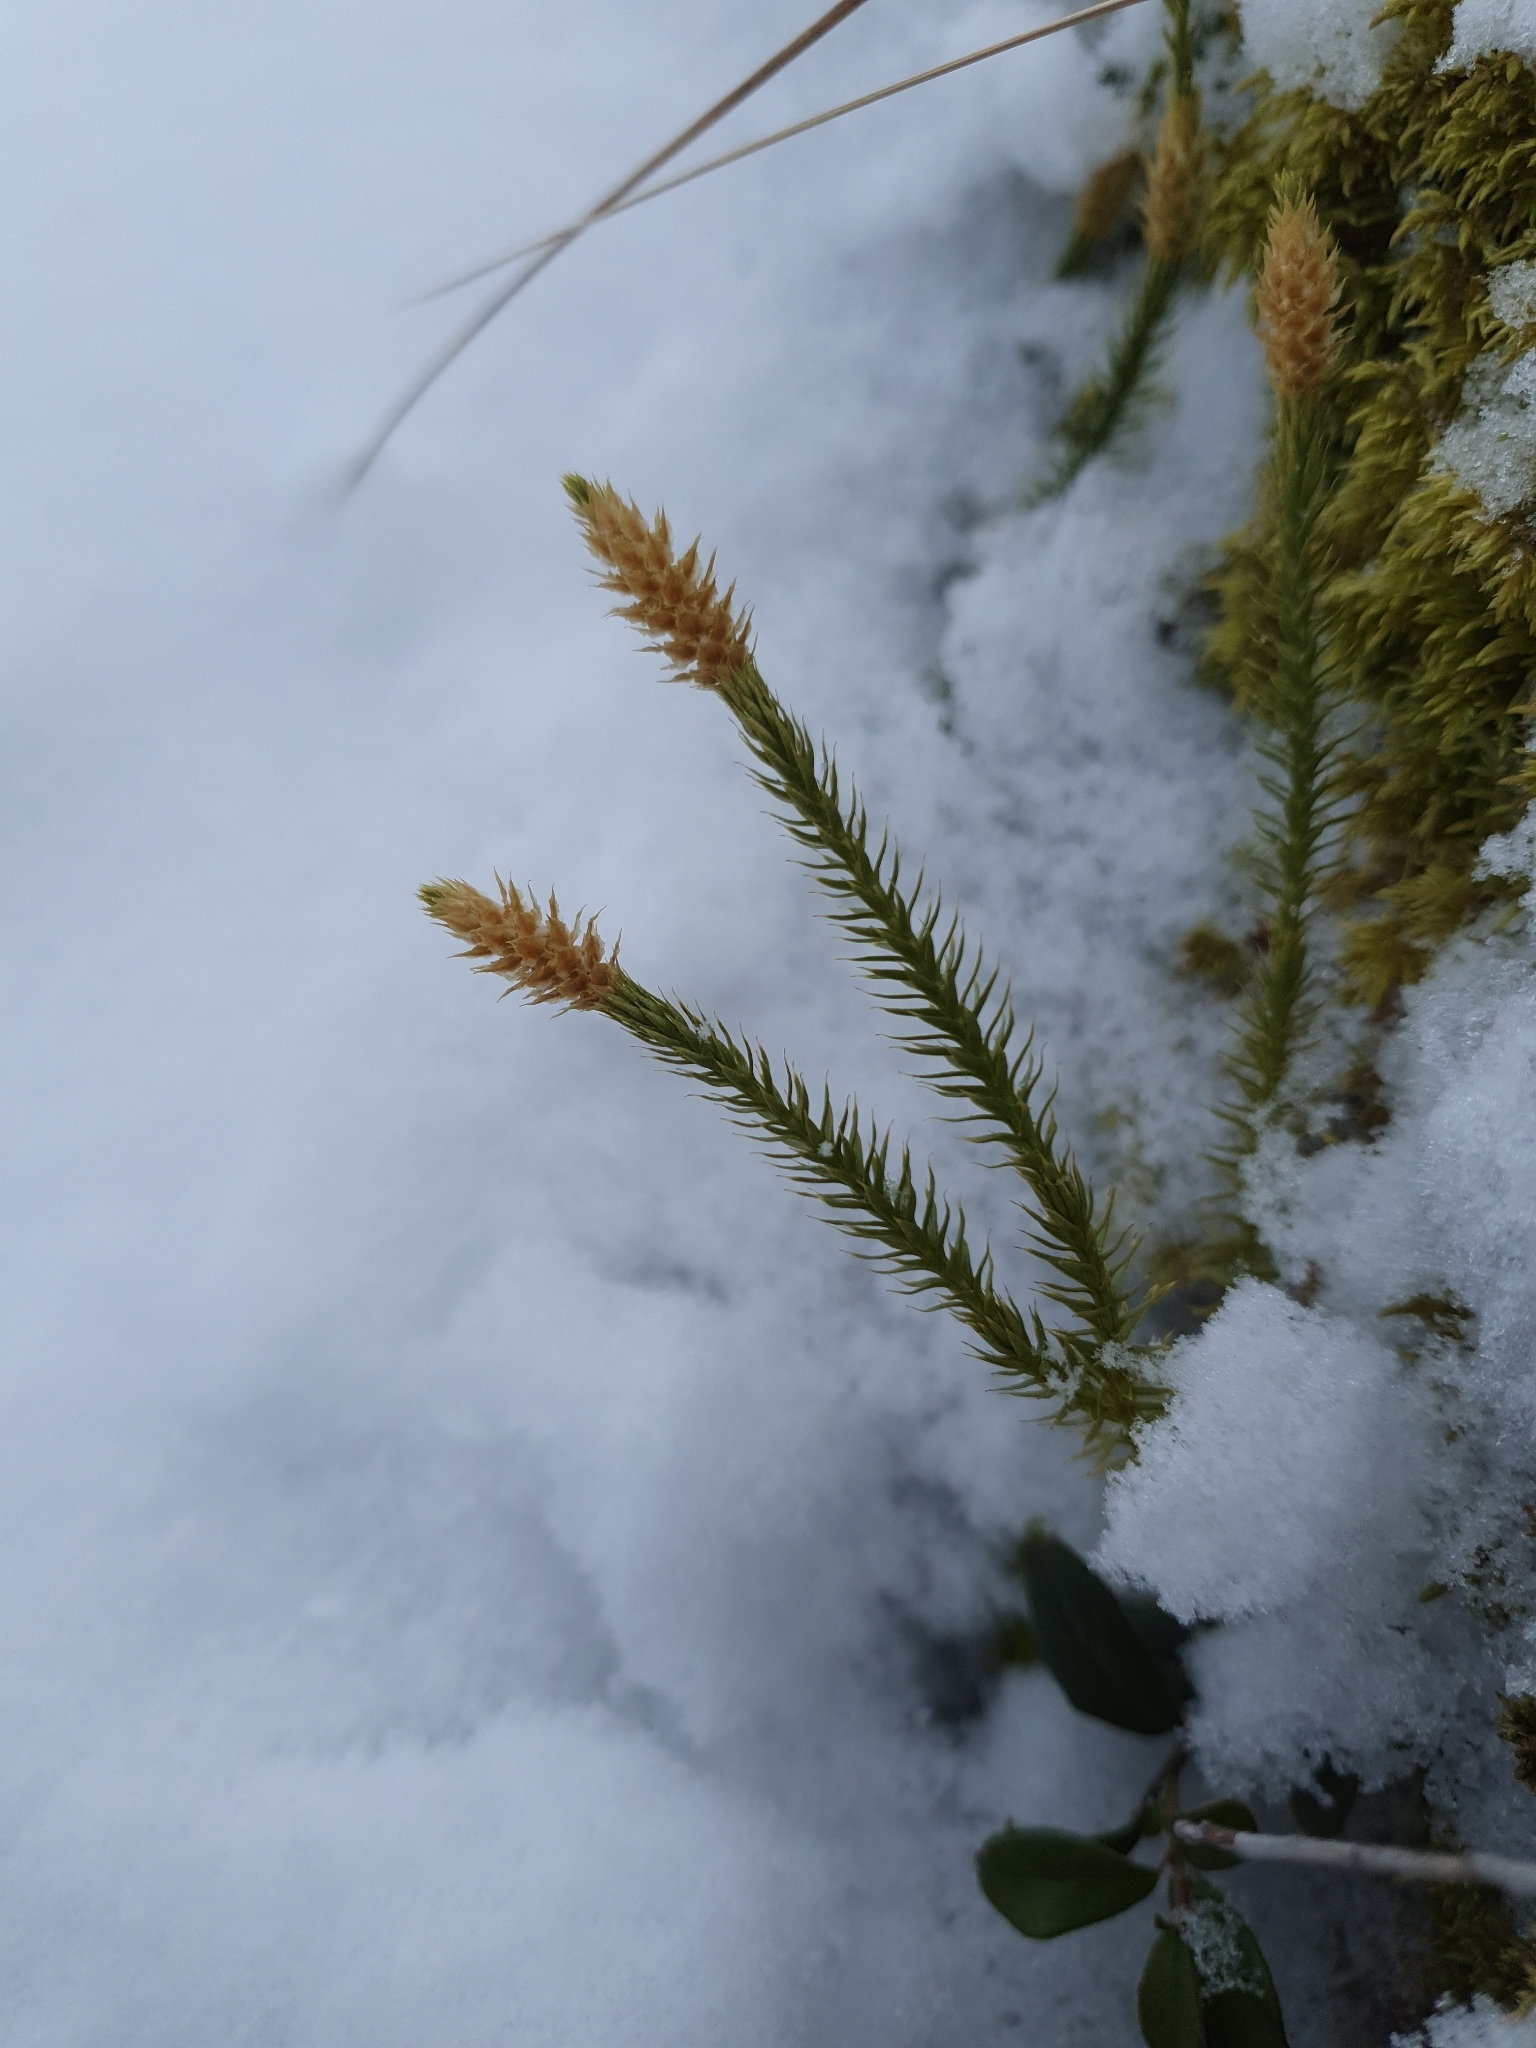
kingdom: Plantae
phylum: Tracheophyta
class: Lycopodiopsida
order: Lycopodiales
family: Lycopodiaceae
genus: Spinulum
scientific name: Spinulum annotinum
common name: Interrupted club-moss
